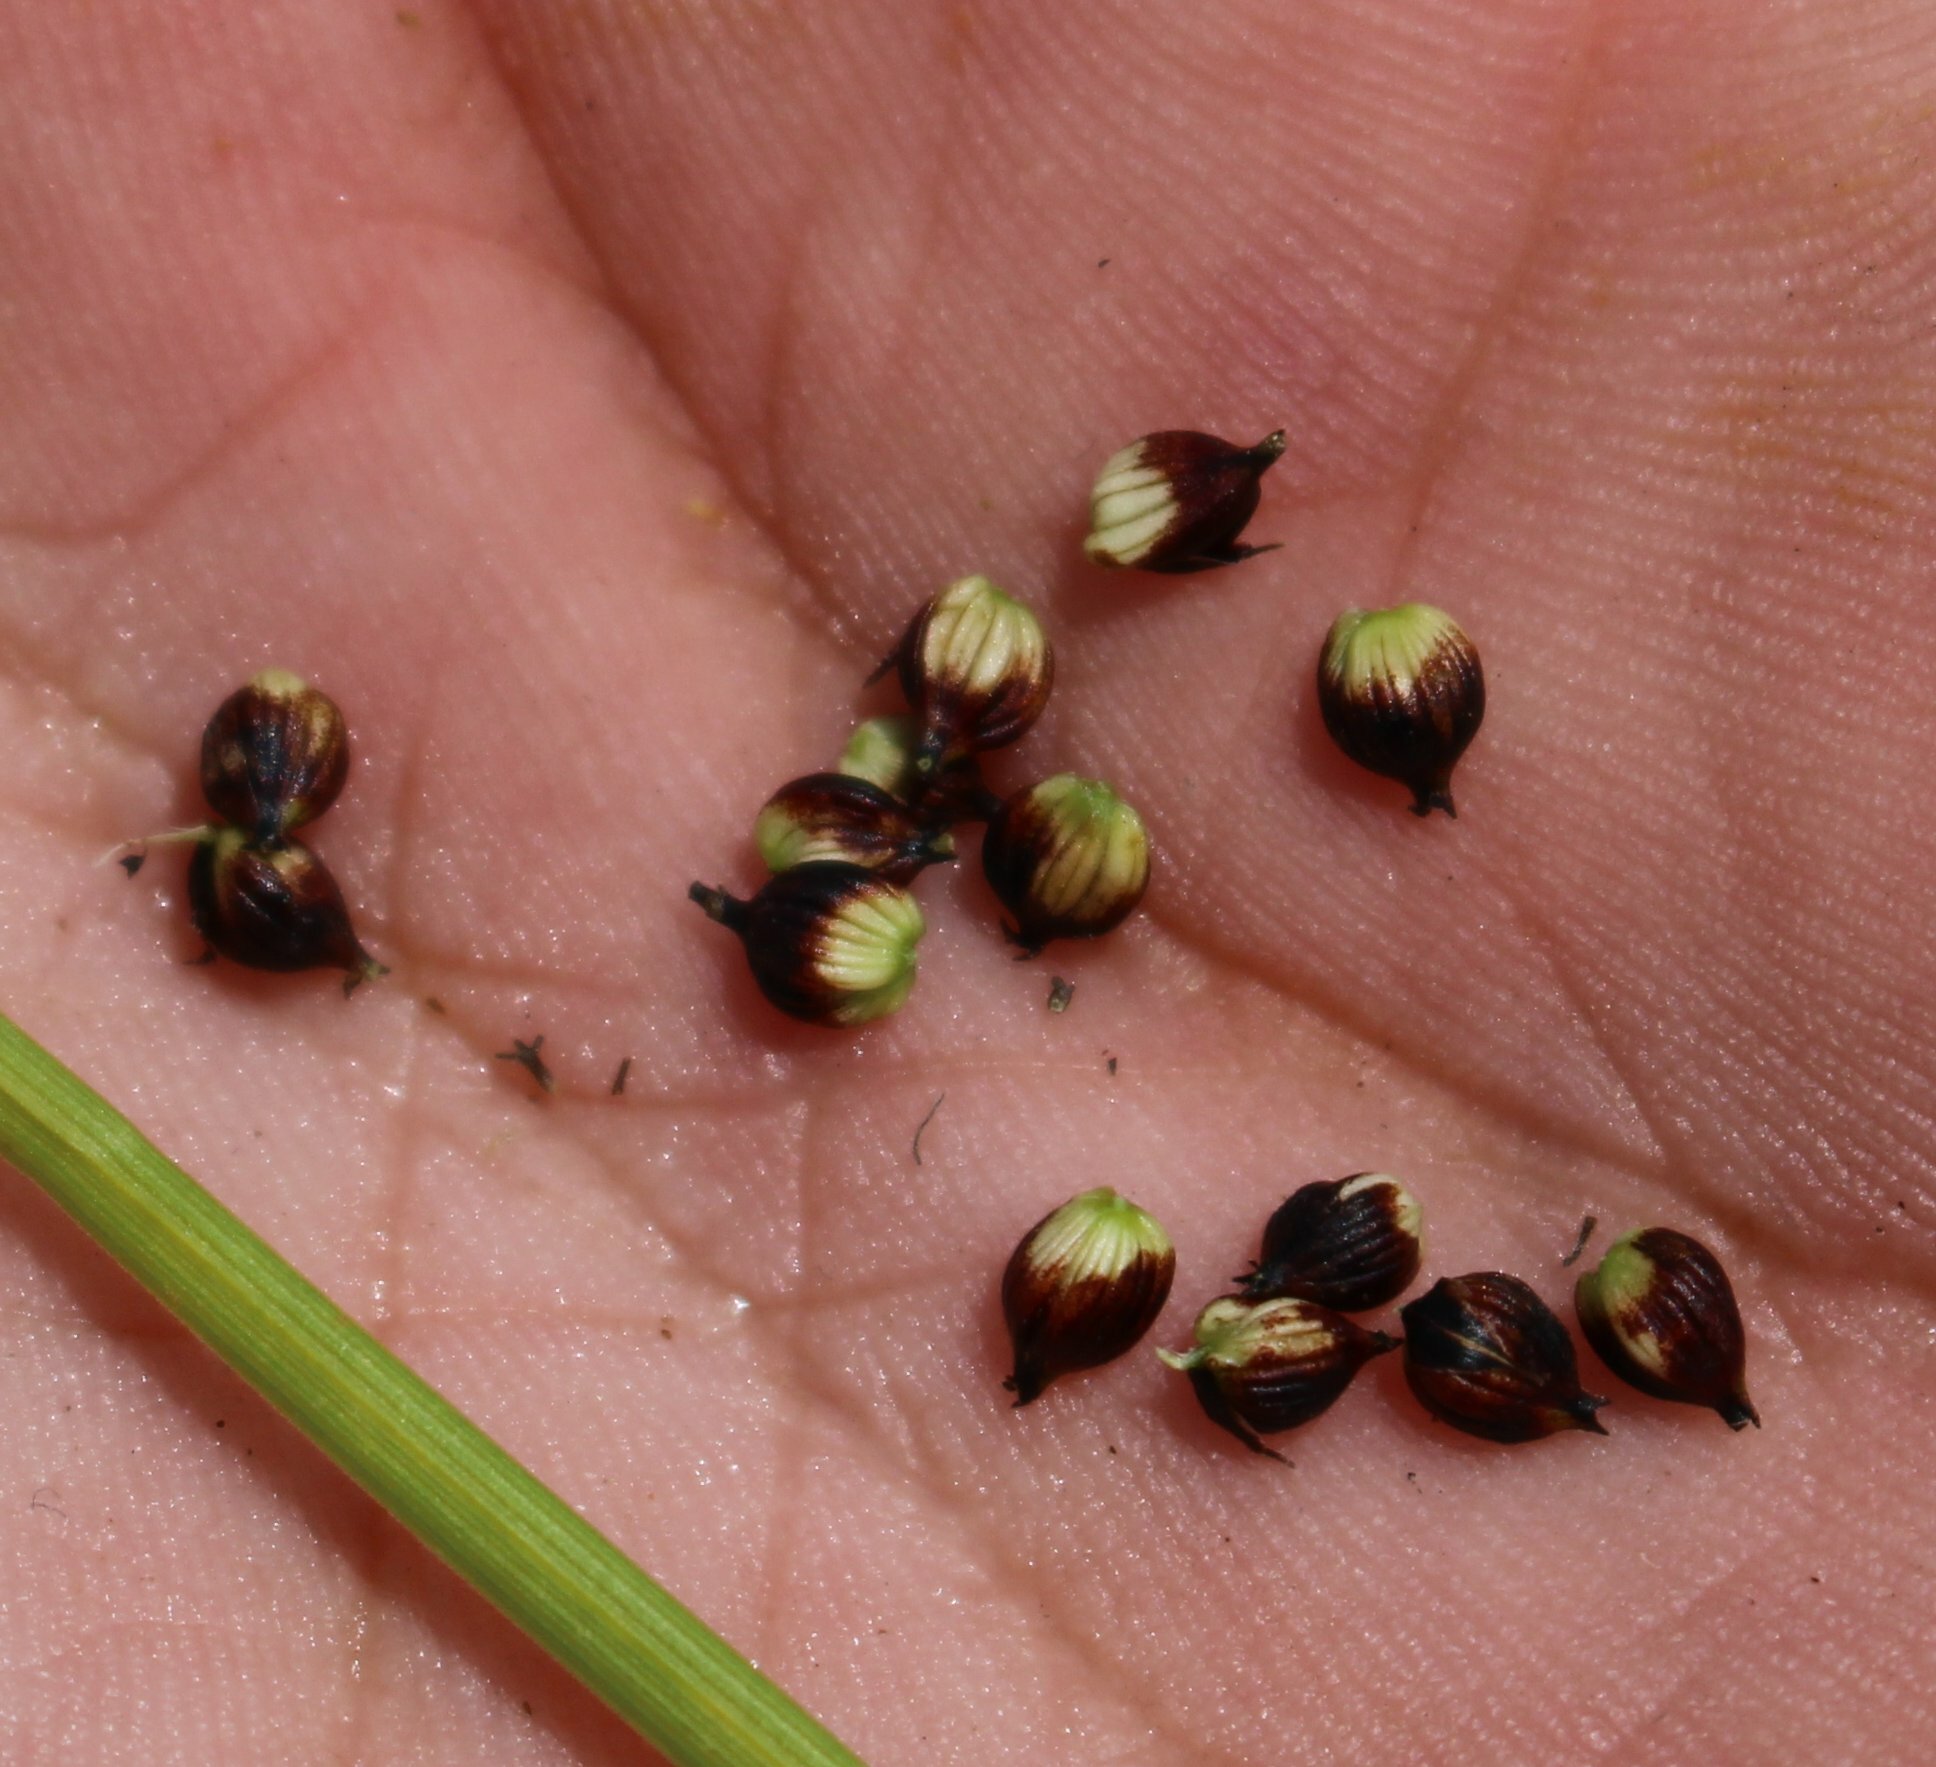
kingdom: Plantae
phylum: Tracheophyta
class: Liliopsida
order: Poales
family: Cyperaceae
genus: Carex
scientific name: Carex melanostachya
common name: Black-spiked sedge
